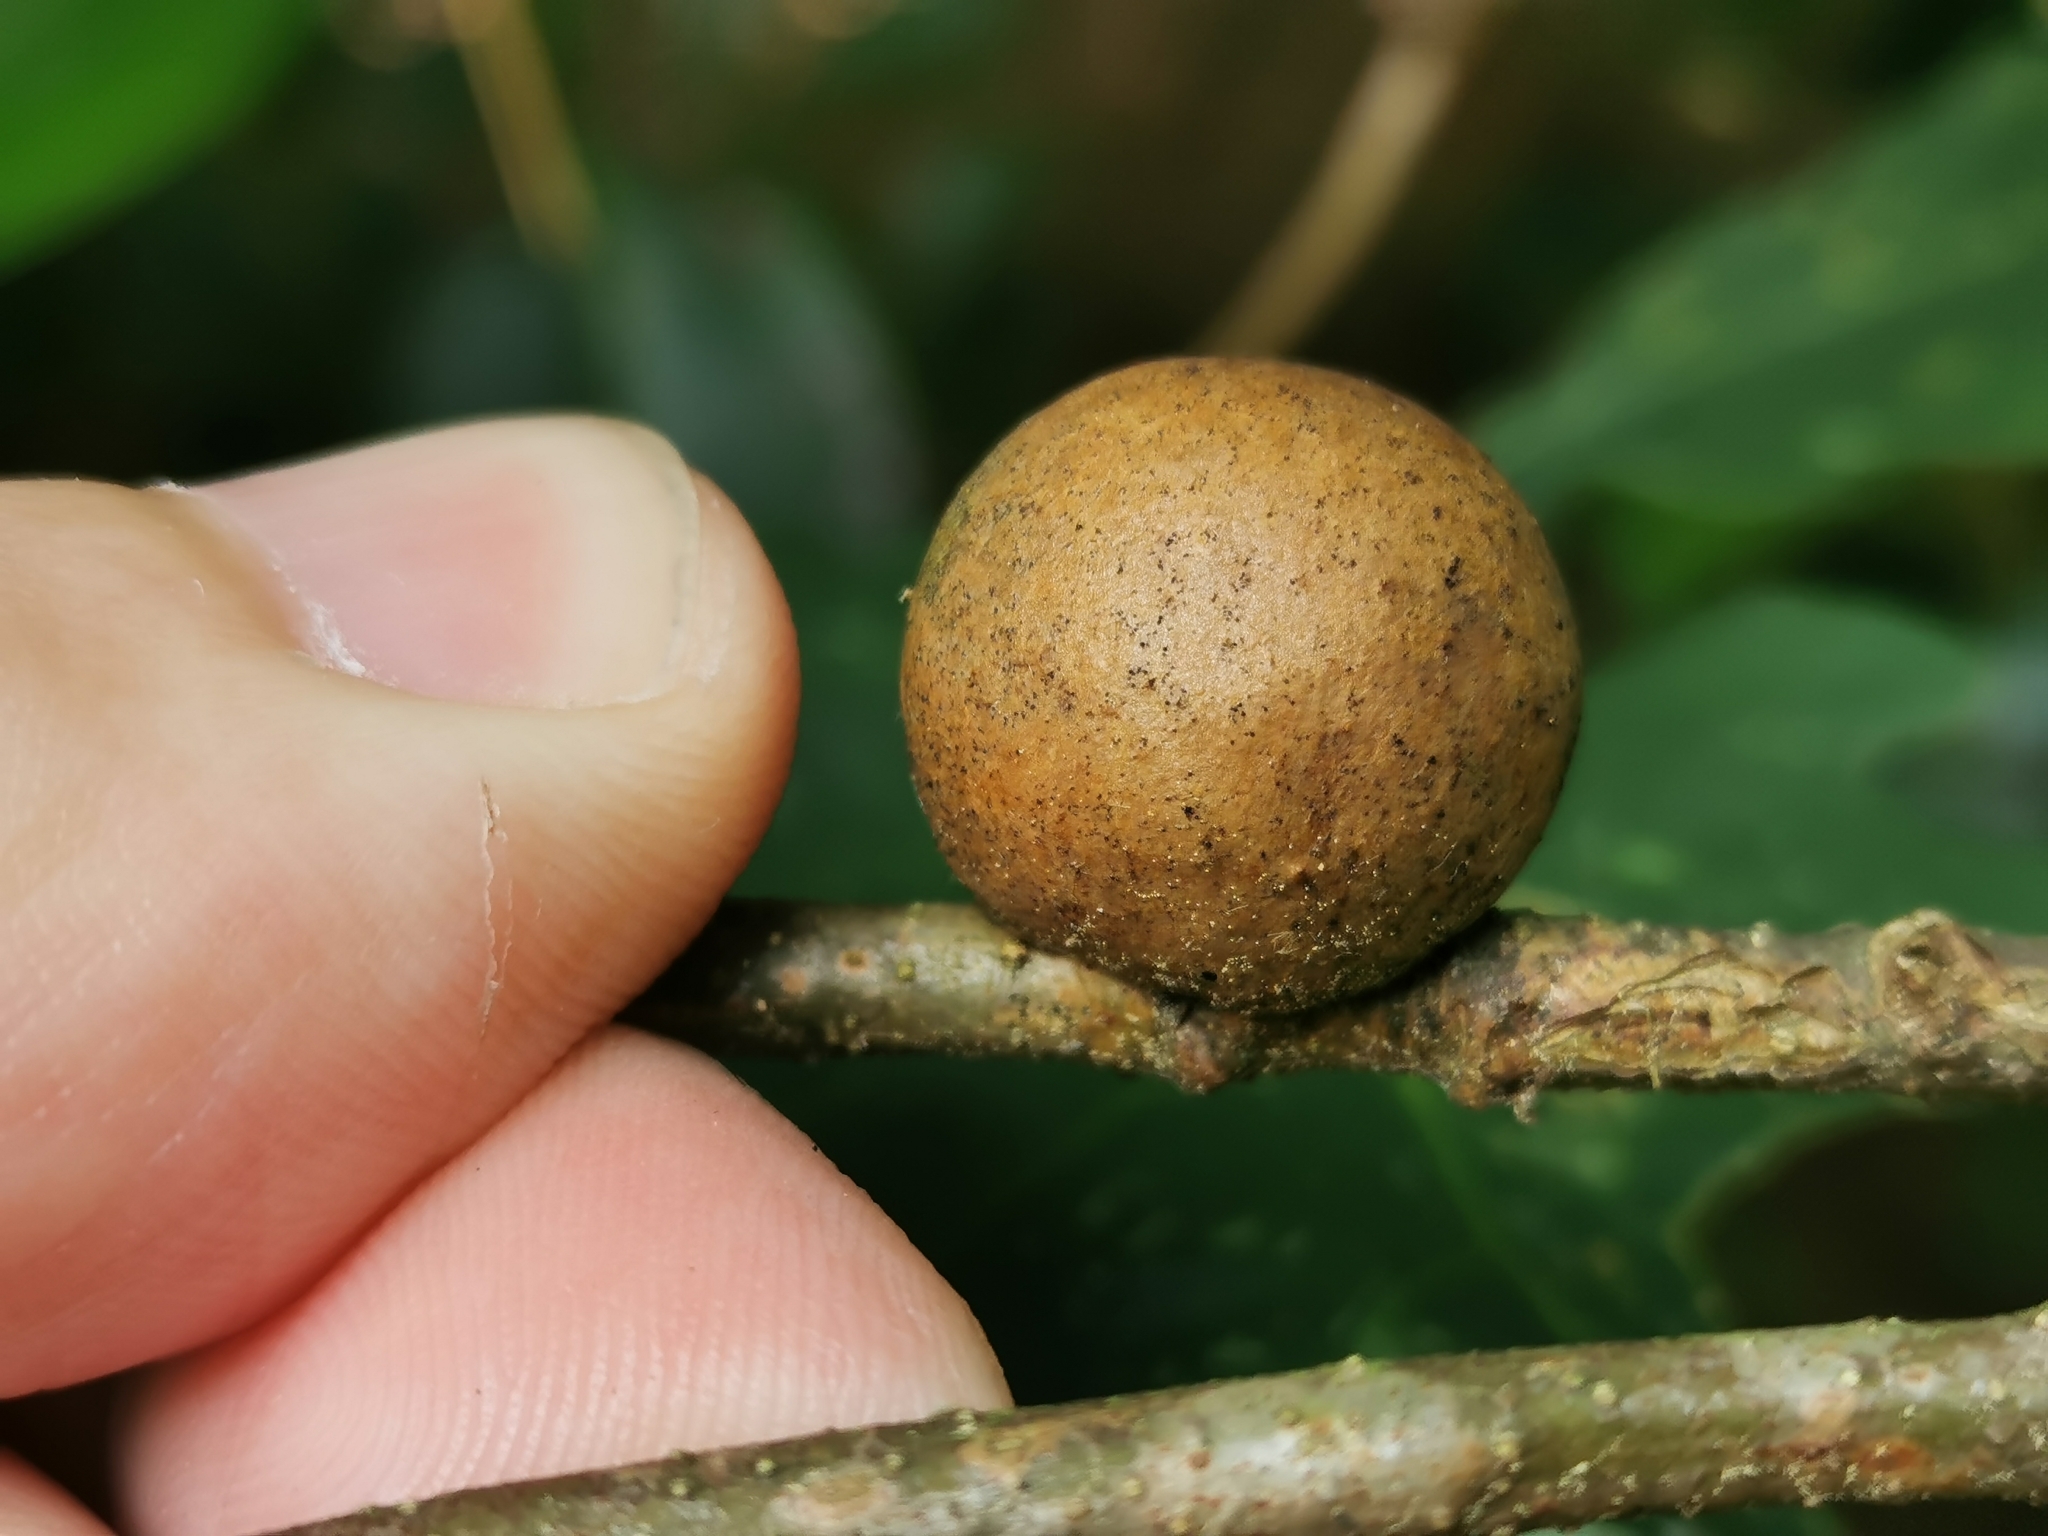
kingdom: Animalia
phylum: Arthropoda
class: Insecta
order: Hymenoptera
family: Cynipidae
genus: Disholcaspis
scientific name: Disholcaspis quercusglobulus
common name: Round bullet gall wasp
